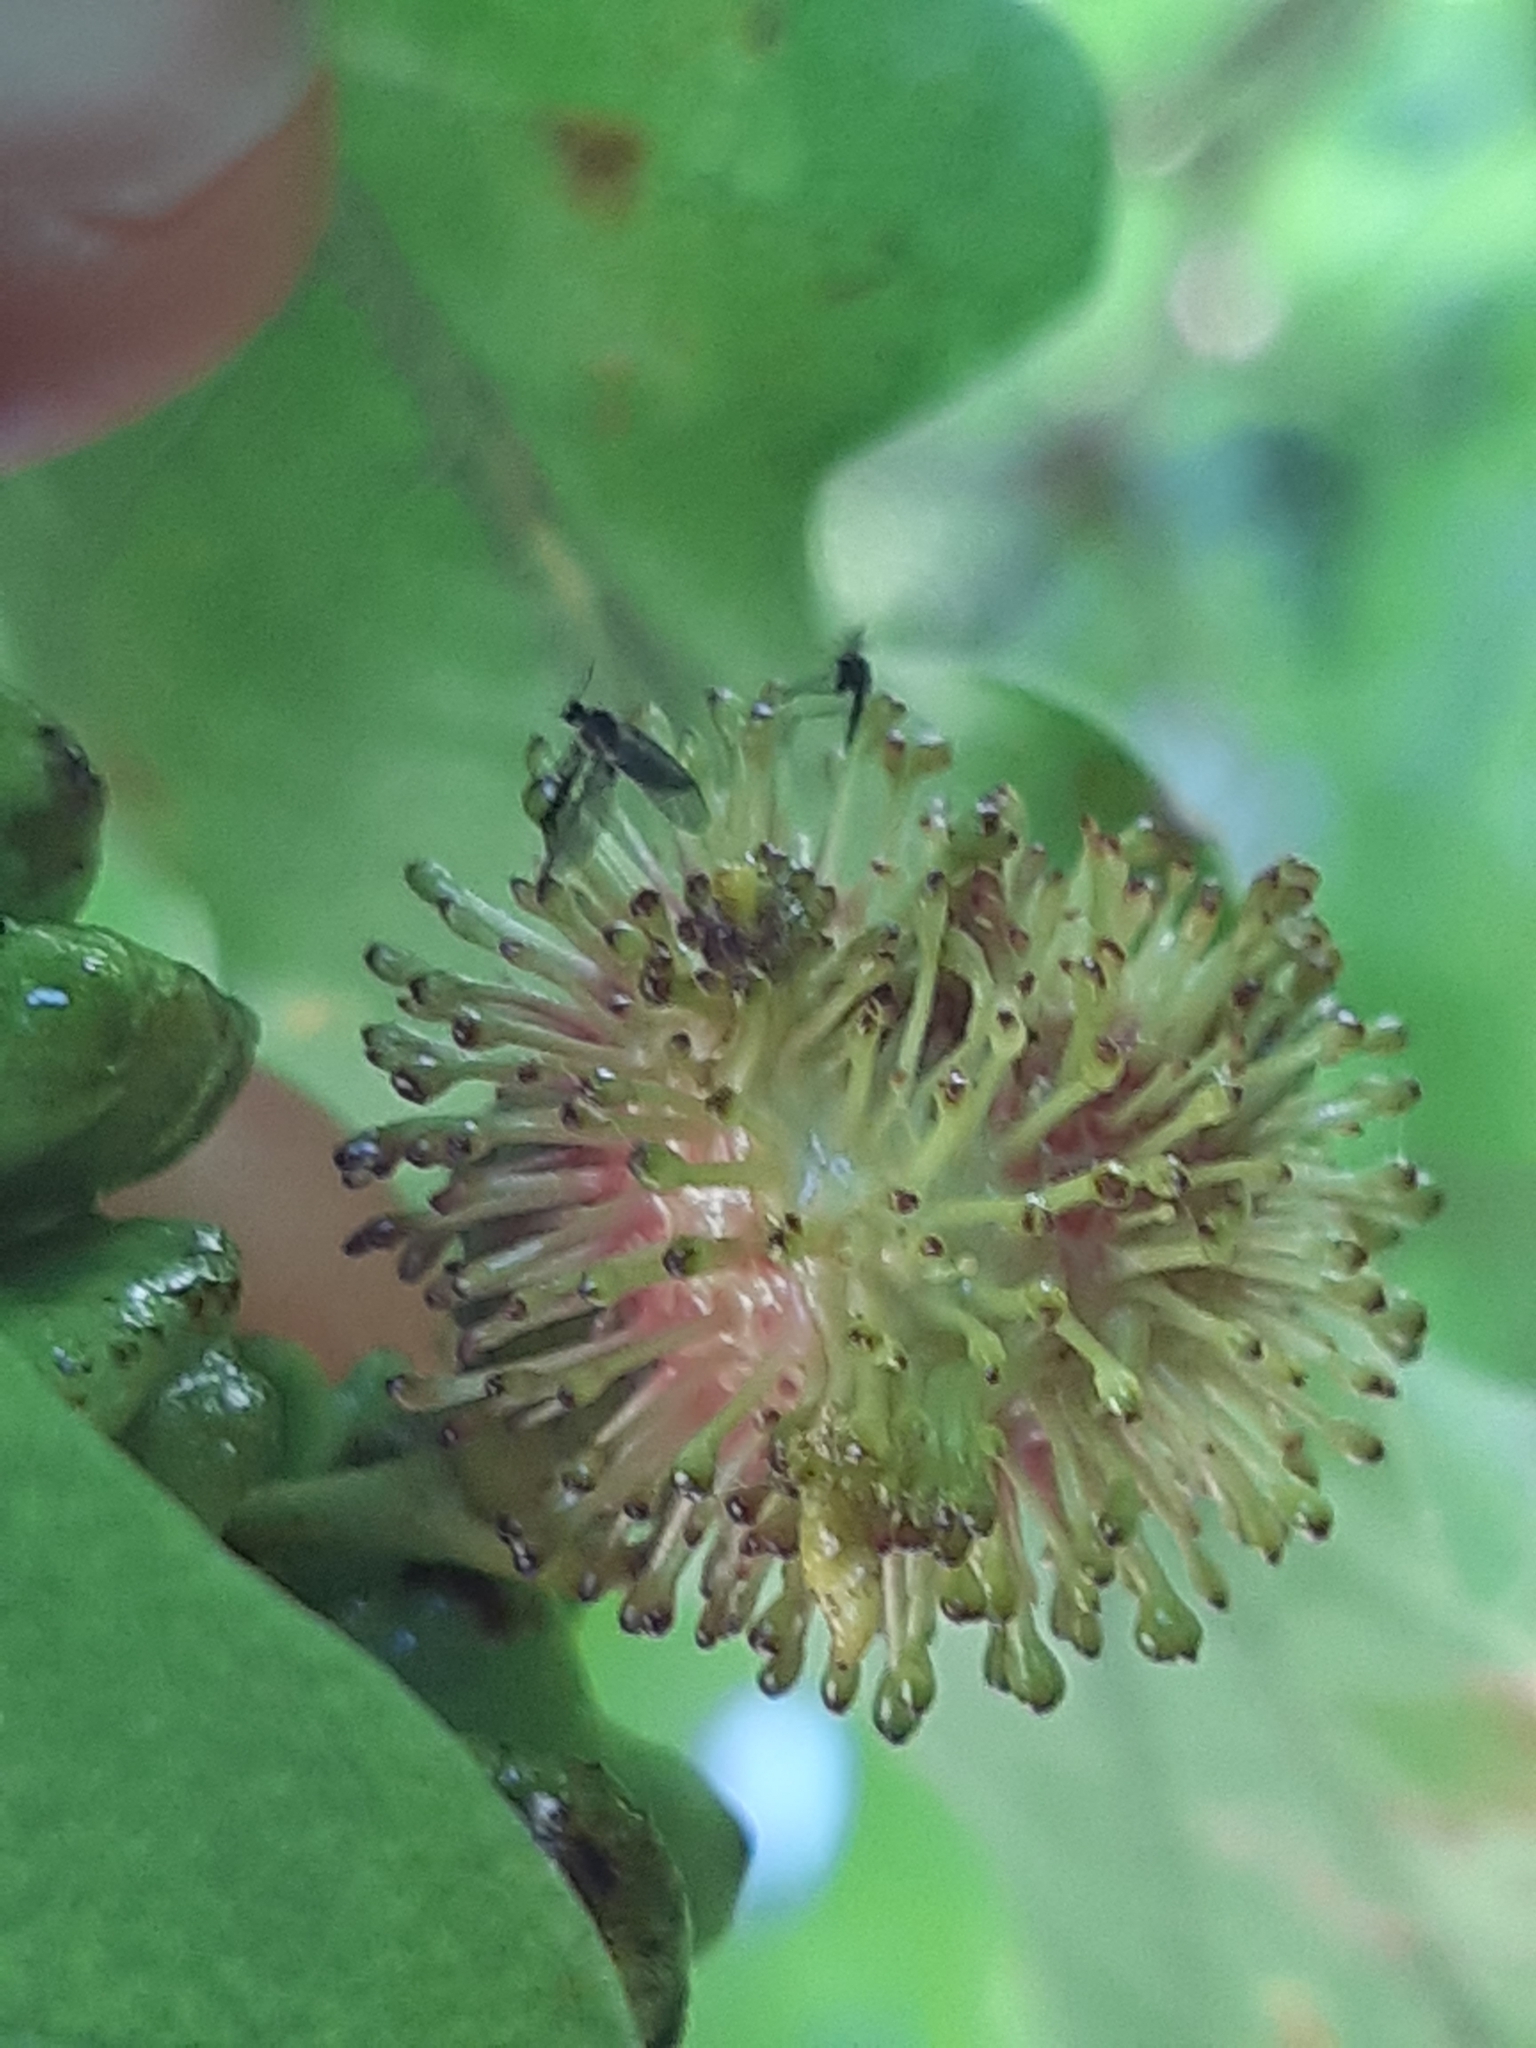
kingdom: Animalia
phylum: Arthropoda
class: Insecta
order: Hymenoptera
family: Cynipidae
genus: Andricus
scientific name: Andricus lucidus
